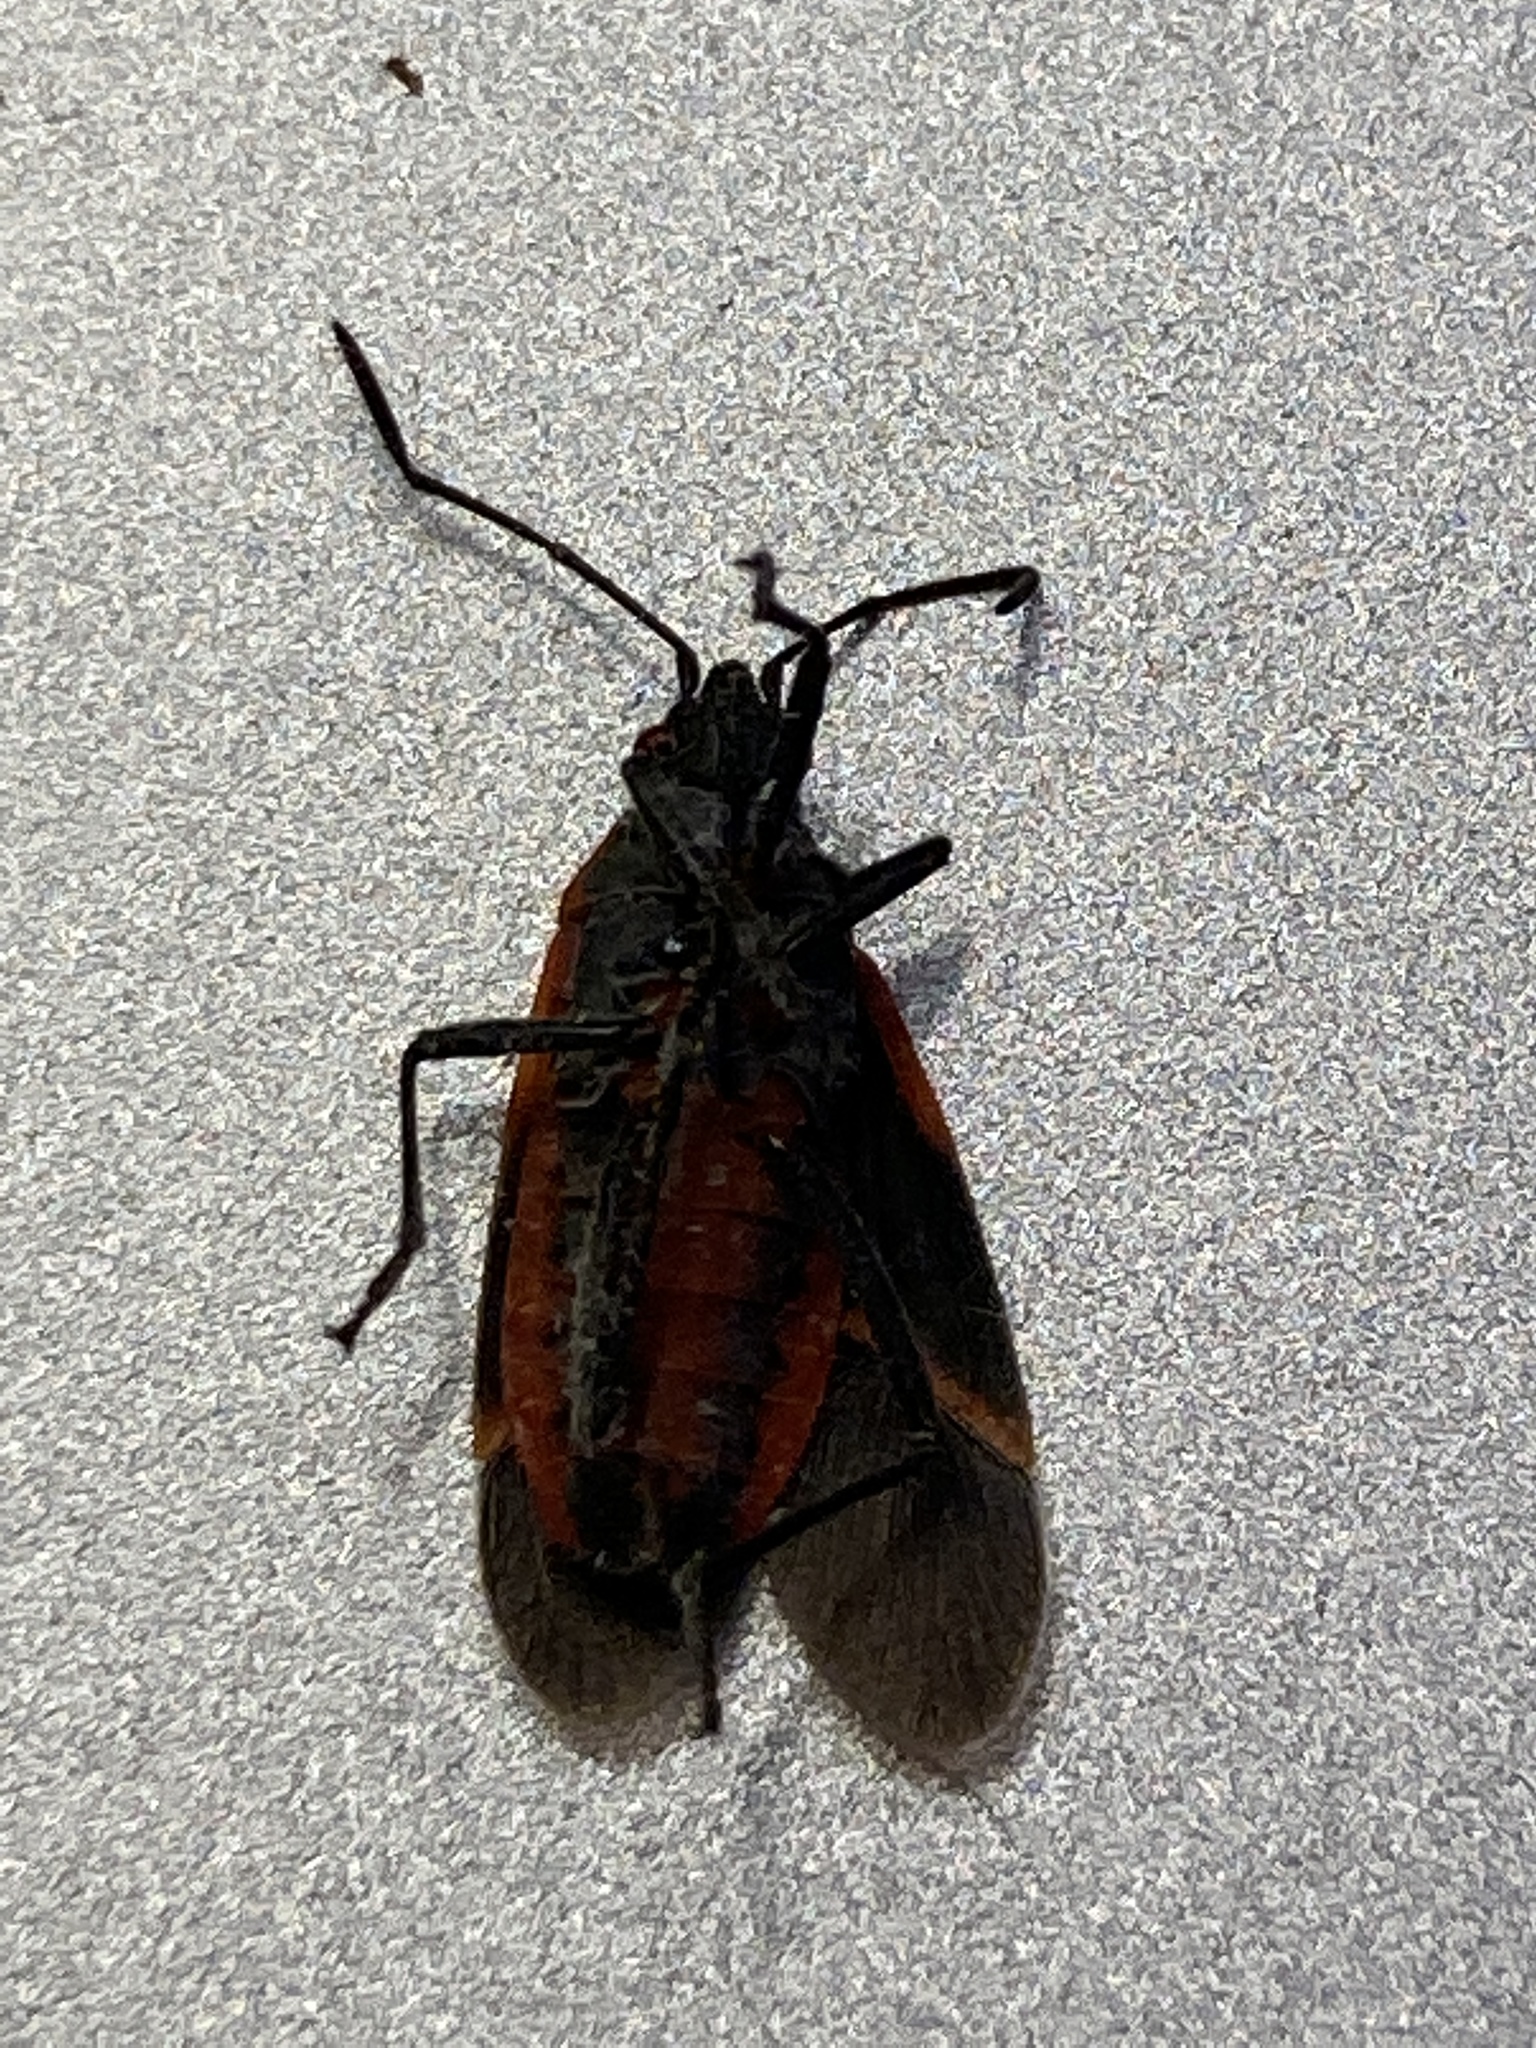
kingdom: Animalia
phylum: Arthropoda
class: Insecta
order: Hemiptera
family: Rhopalidae
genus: Boisea
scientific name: Boisea trivittata
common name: Boxelder bug
